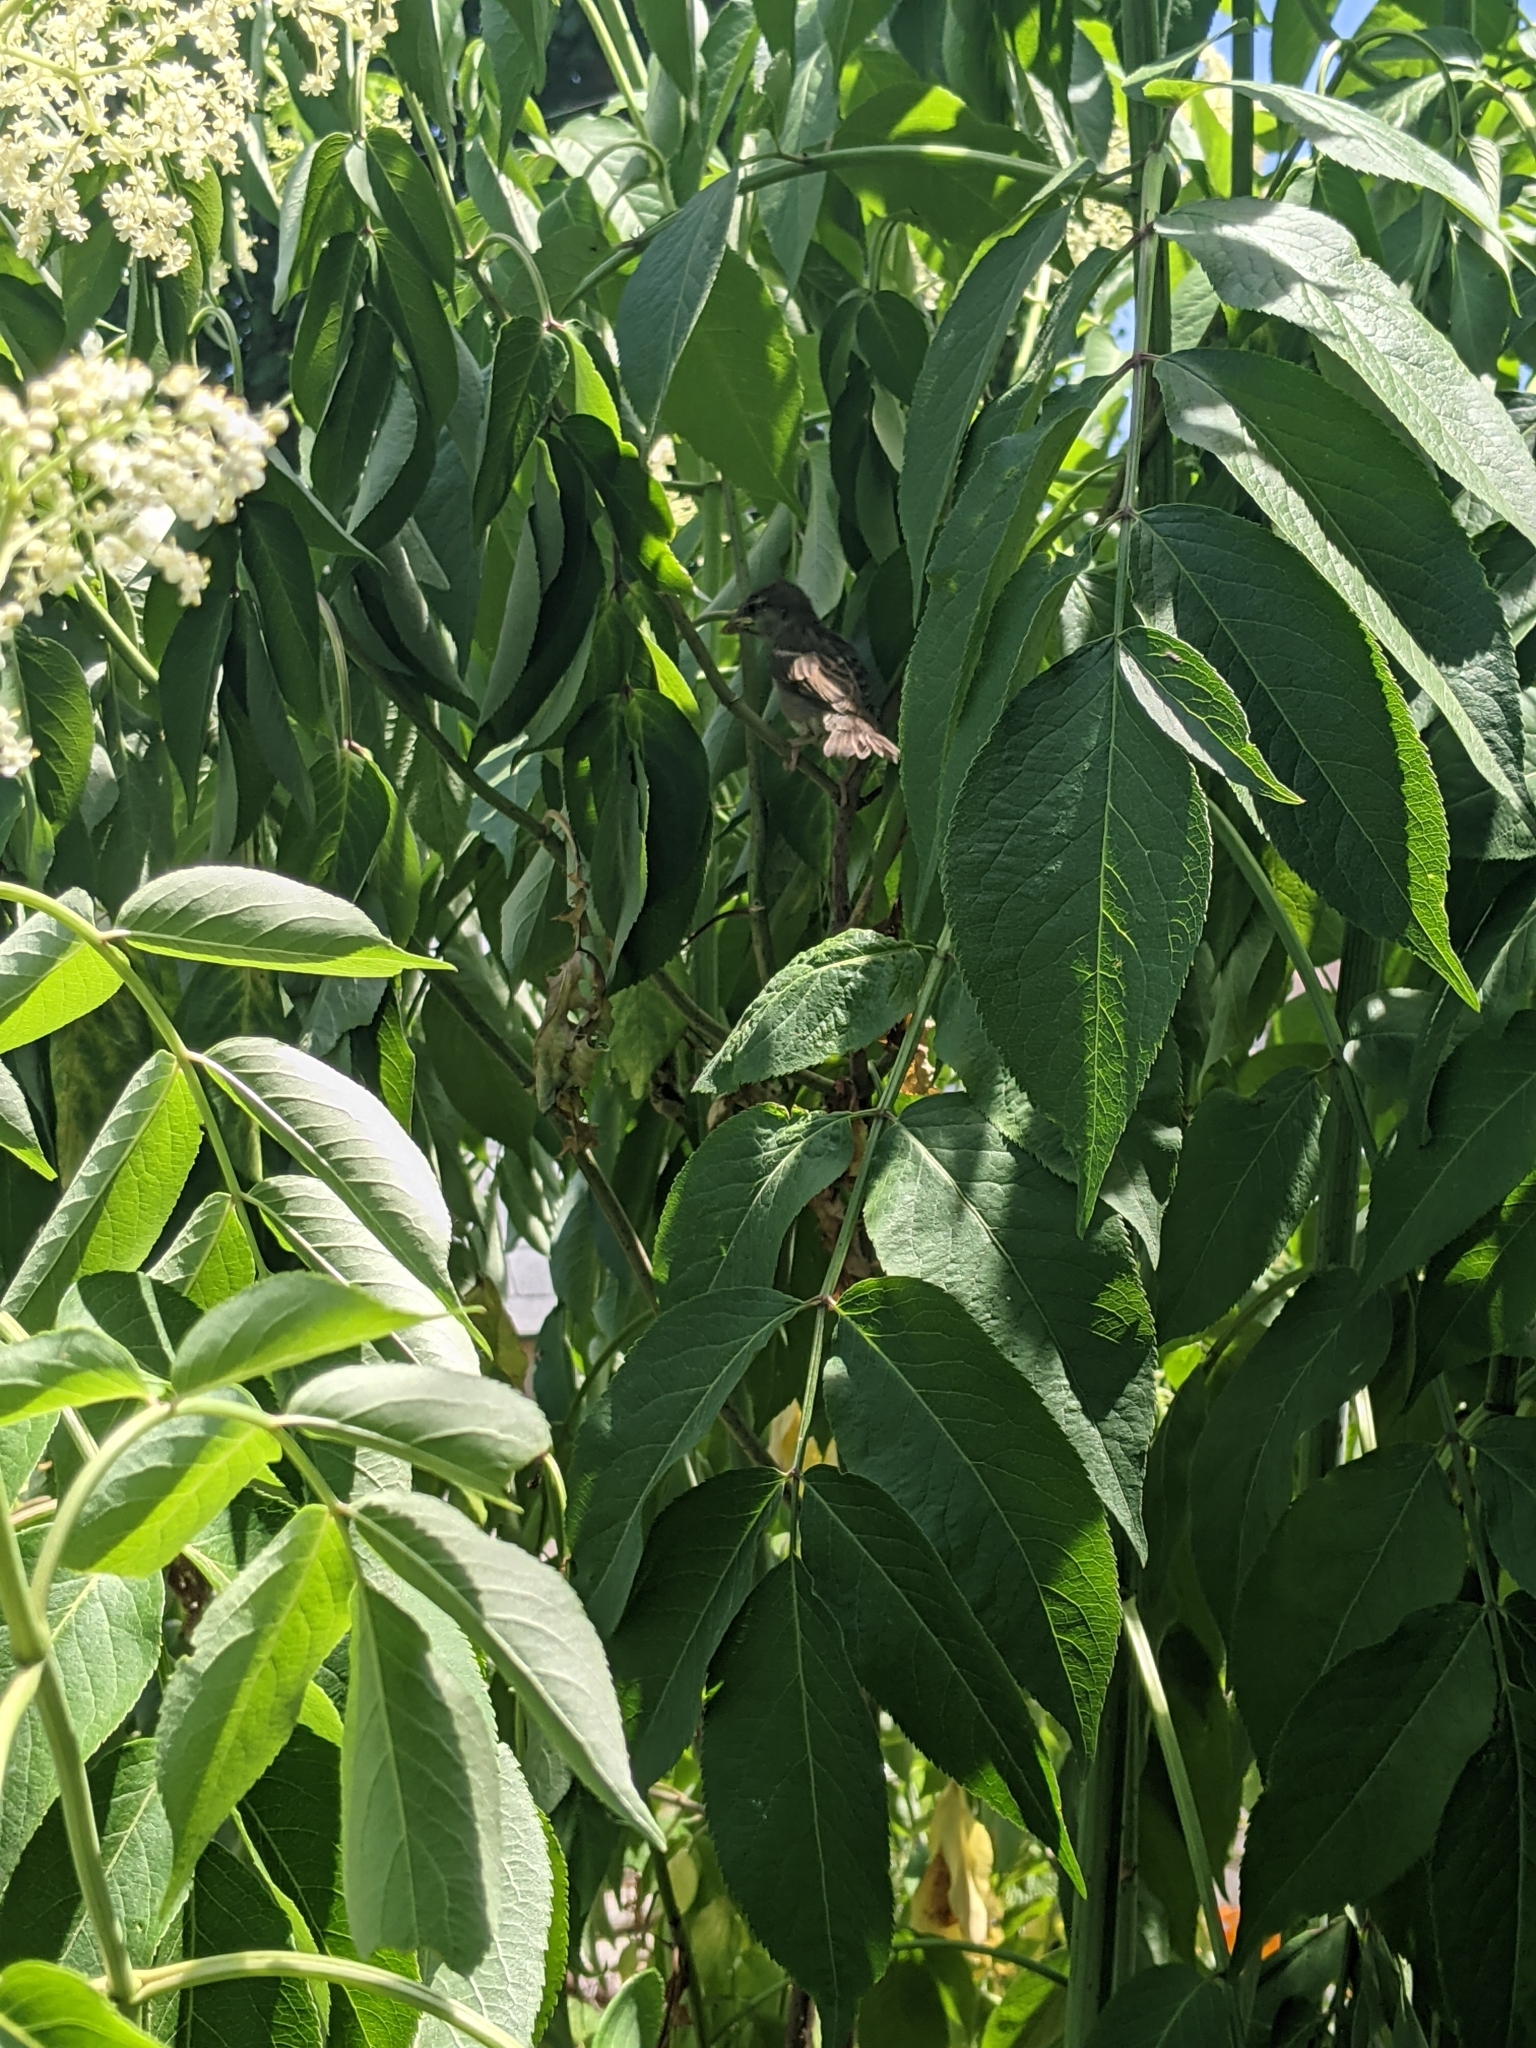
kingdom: Animalia
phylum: Chordata
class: Aves
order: Passeriformes
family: Passeridae
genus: Passer
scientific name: Passer domesticus
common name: House sparrow
